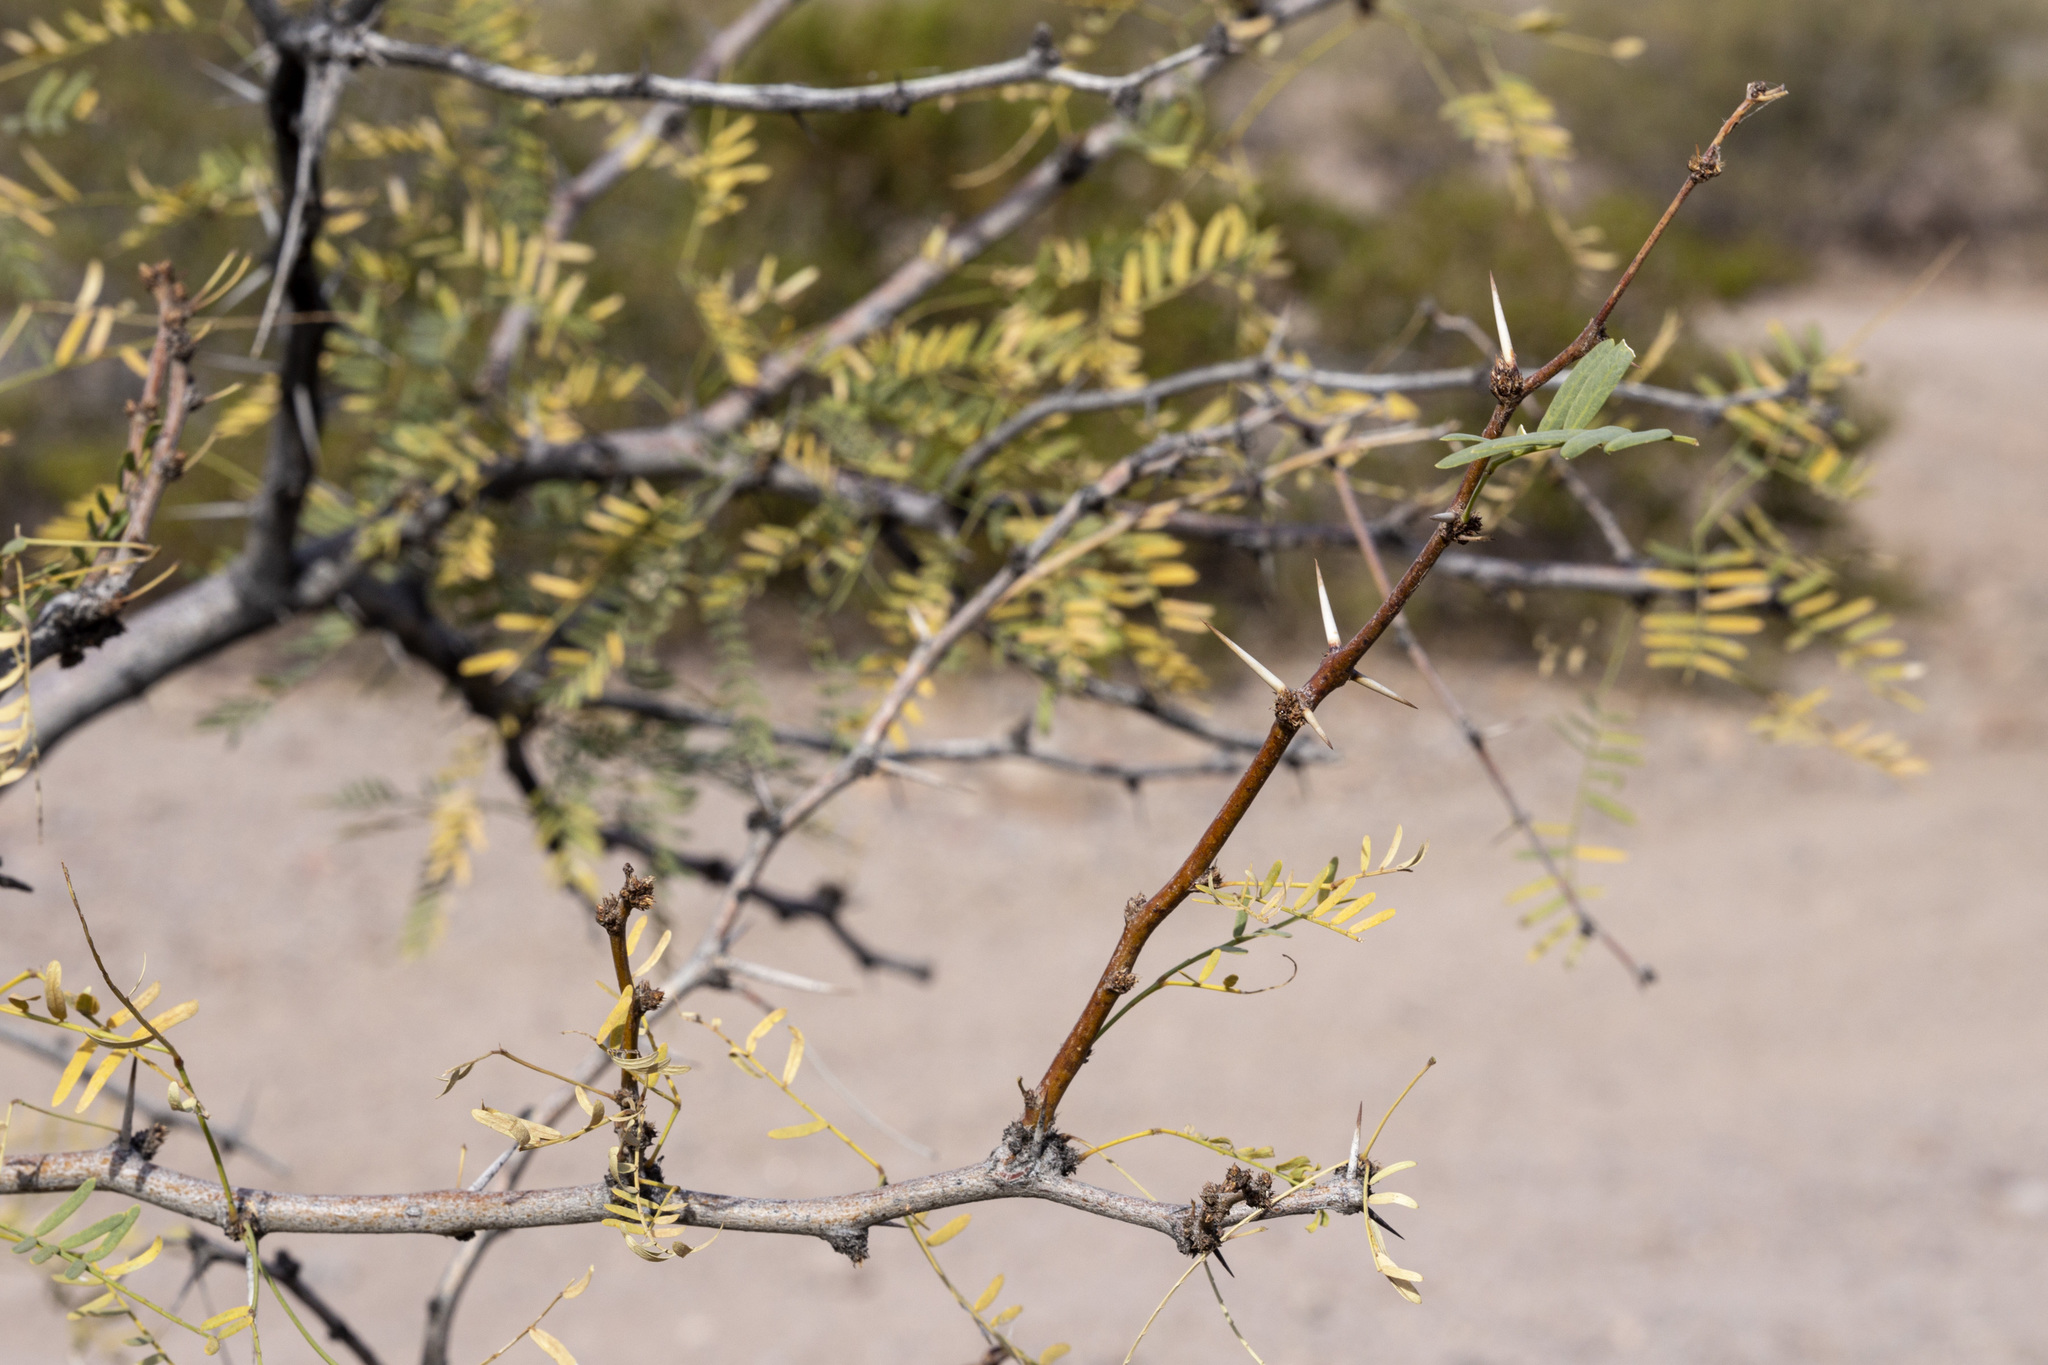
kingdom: Plantae
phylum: Tracheophyta
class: Magnoliopsida
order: Fabales
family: Fabaceae
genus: Prosopis
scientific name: Prosopis glandulosa
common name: Honey mesquite
